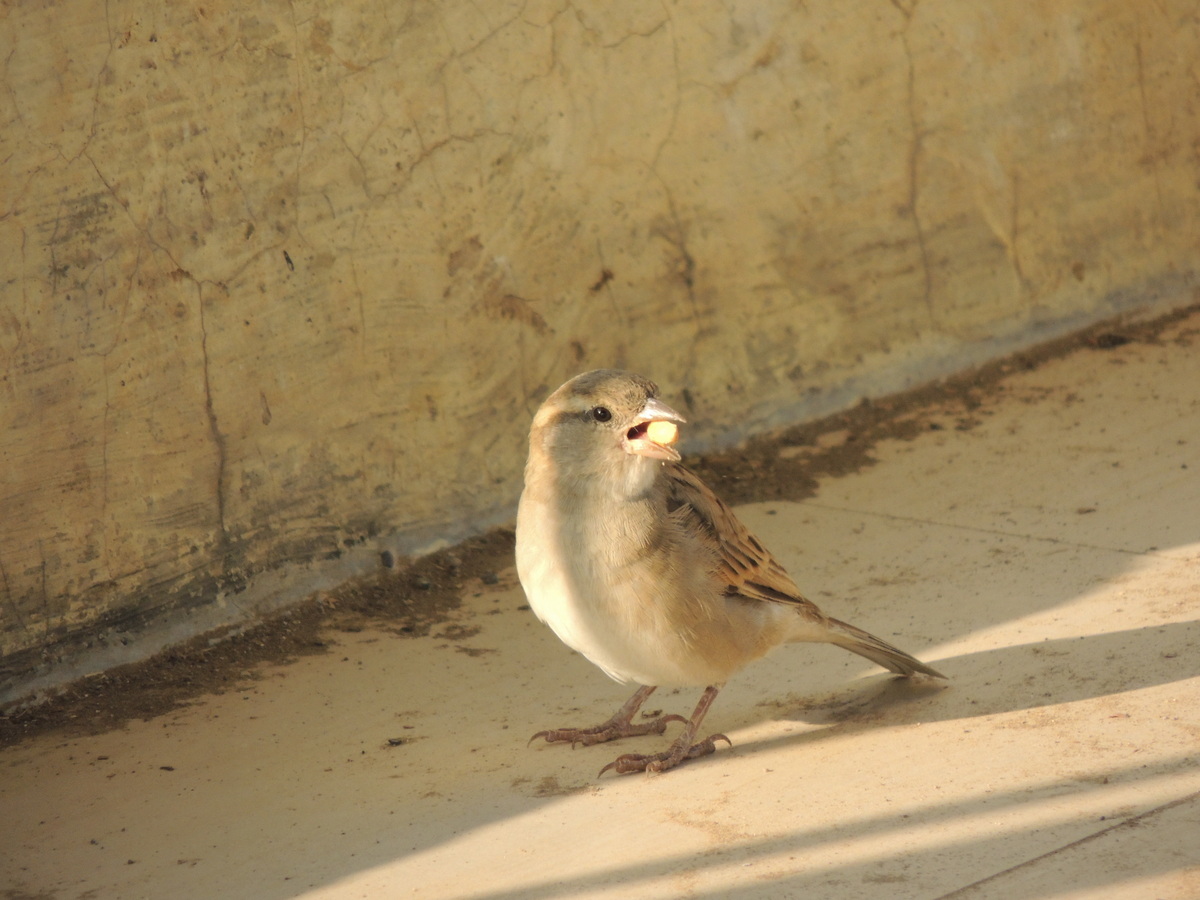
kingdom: Animalia
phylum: Chordata
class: Aves
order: Passeriformes
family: Passeridae
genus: Passer
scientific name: Passer domesticus
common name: House sparrow
